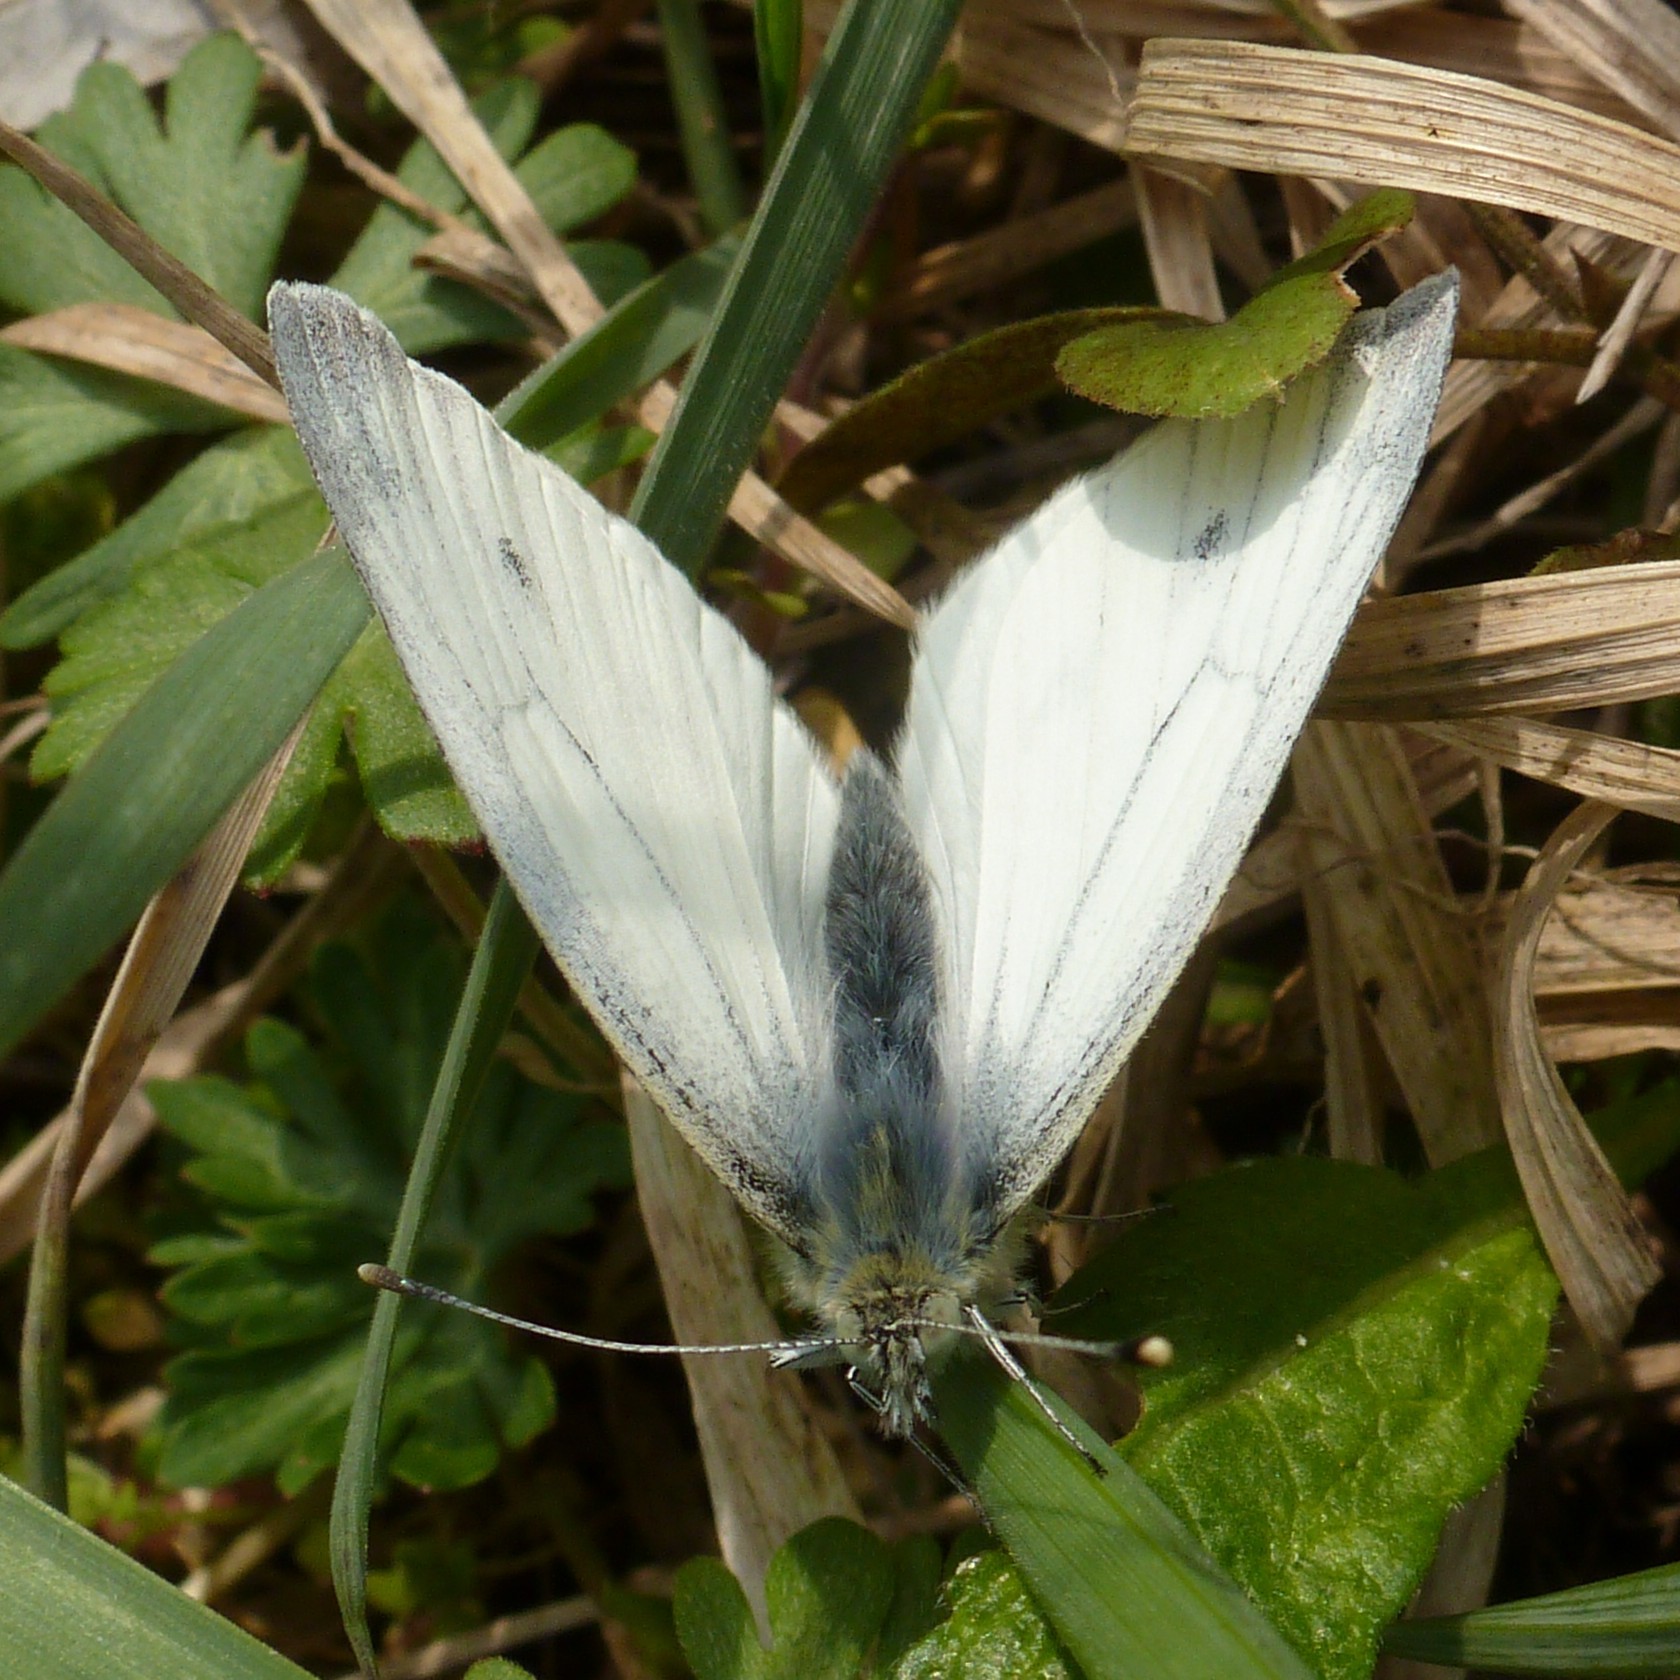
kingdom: Animalia
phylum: Arthropoda
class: Insecta
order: Lepidoptera
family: Pieridae
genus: Pieris
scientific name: Pieris napi
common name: Green-veined white
